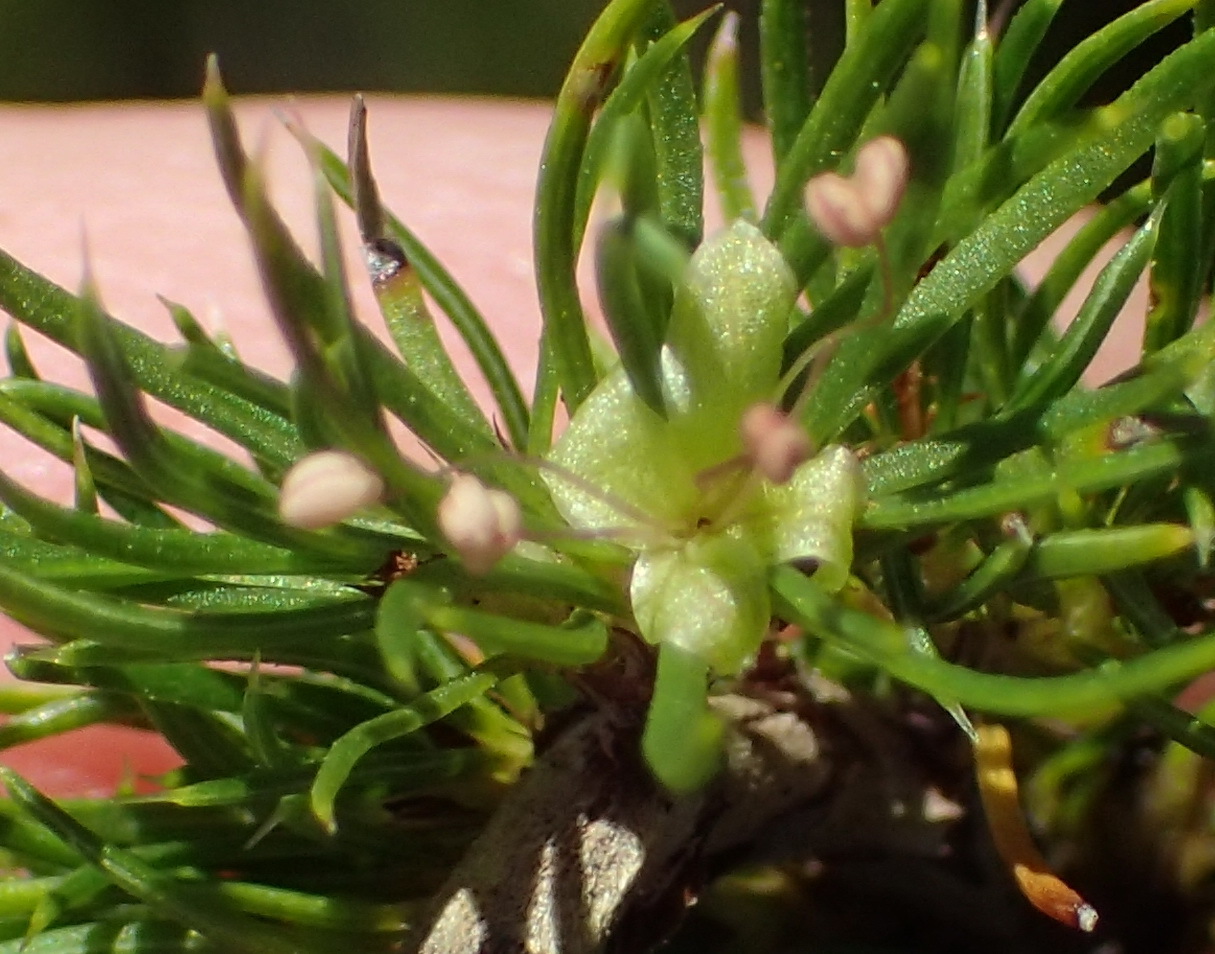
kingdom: Plantae
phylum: Tracheophyta
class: Magnoliopsida
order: Rosales
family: Rosaceae
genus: Cliffortia
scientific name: Cliffortia burchellii
